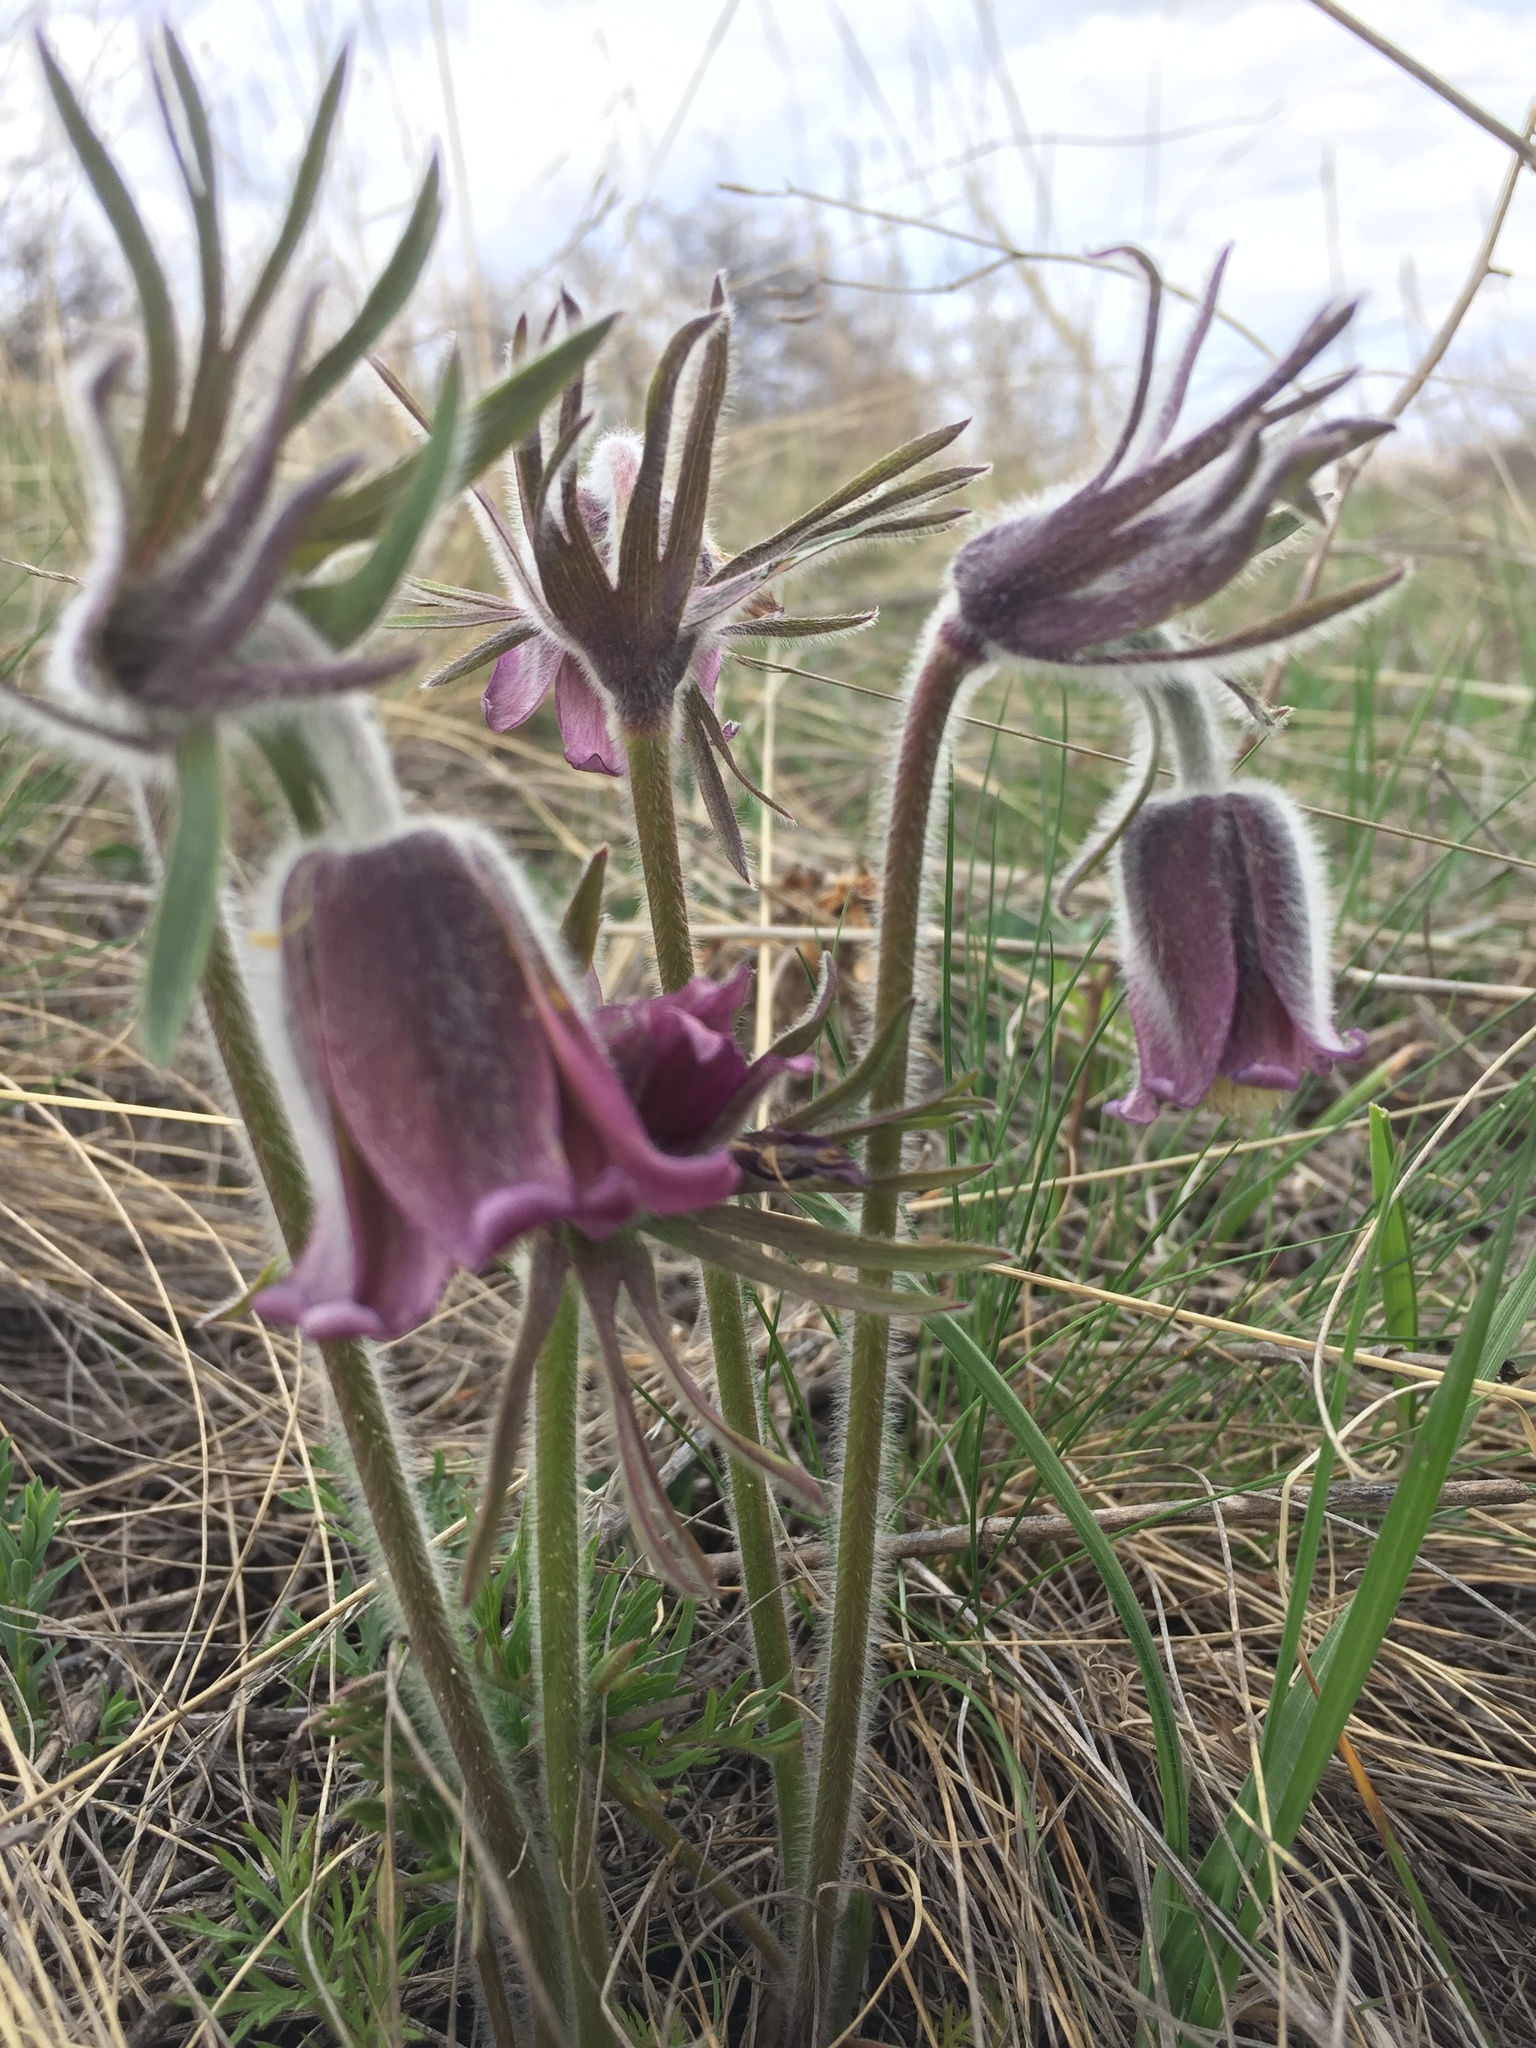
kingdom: Plantae
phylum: Tracheophyta
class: Magnoliopsida
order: Ranunculales
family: Ranunculaceae
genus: Pulsatilla
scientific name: Pulsatilla pratensis
